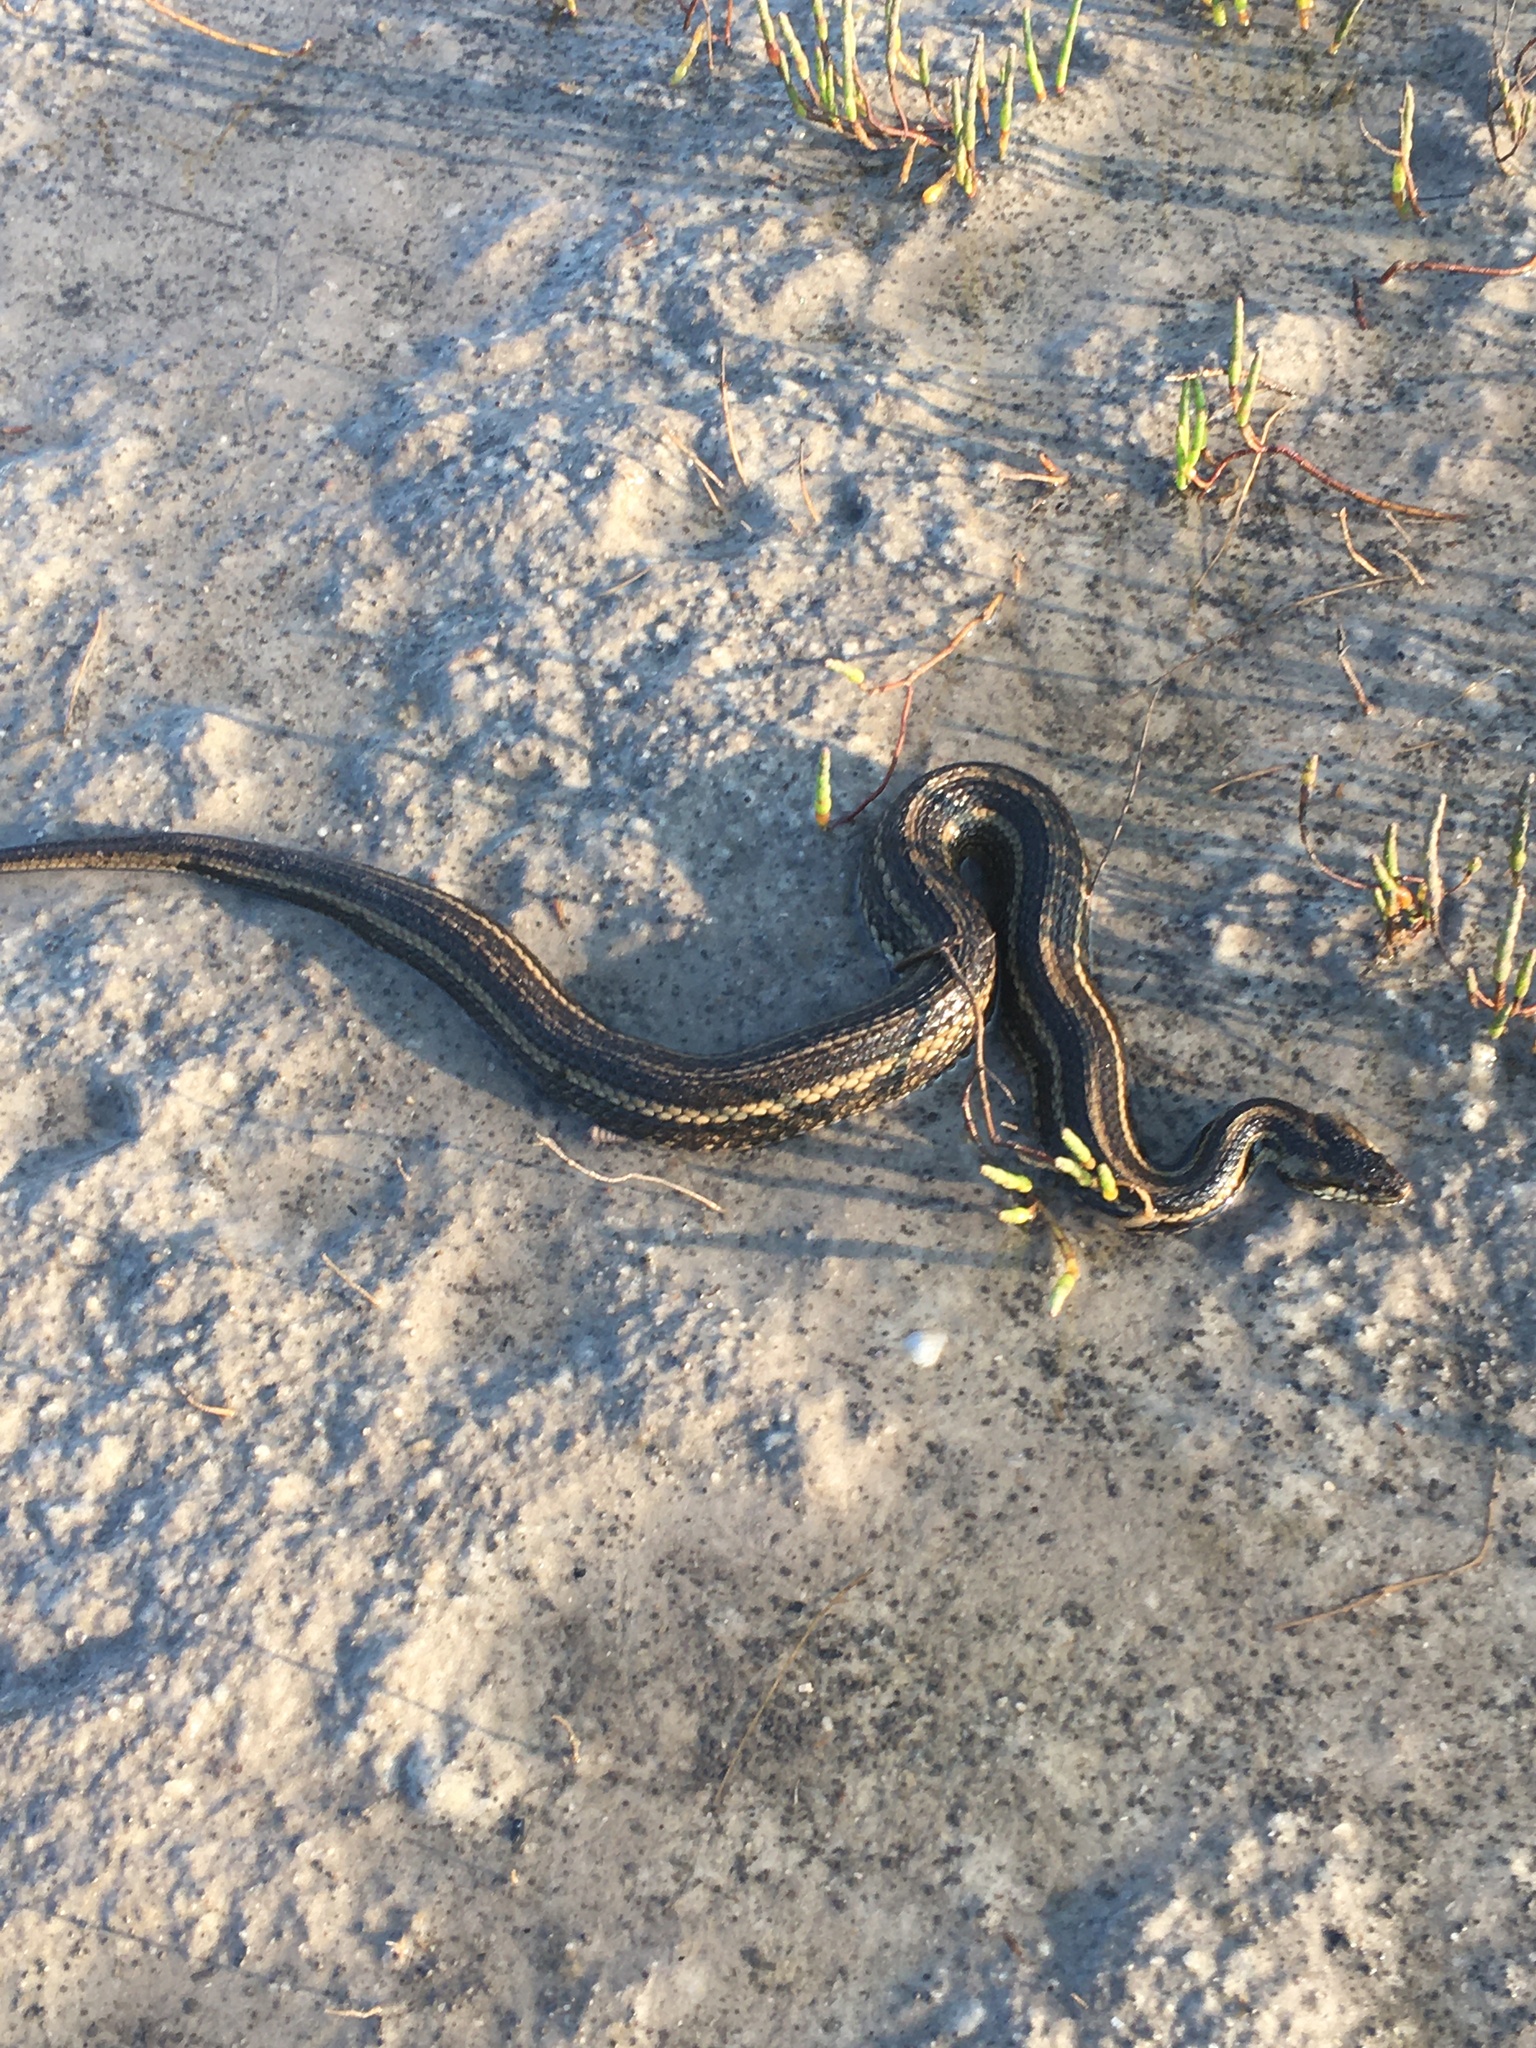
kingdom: Animalia
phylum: Chordata
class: Squamata
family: Colubridae
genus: Nerodia
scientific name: Nerodia clarkii
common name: Atlantic saltmarsh snake
